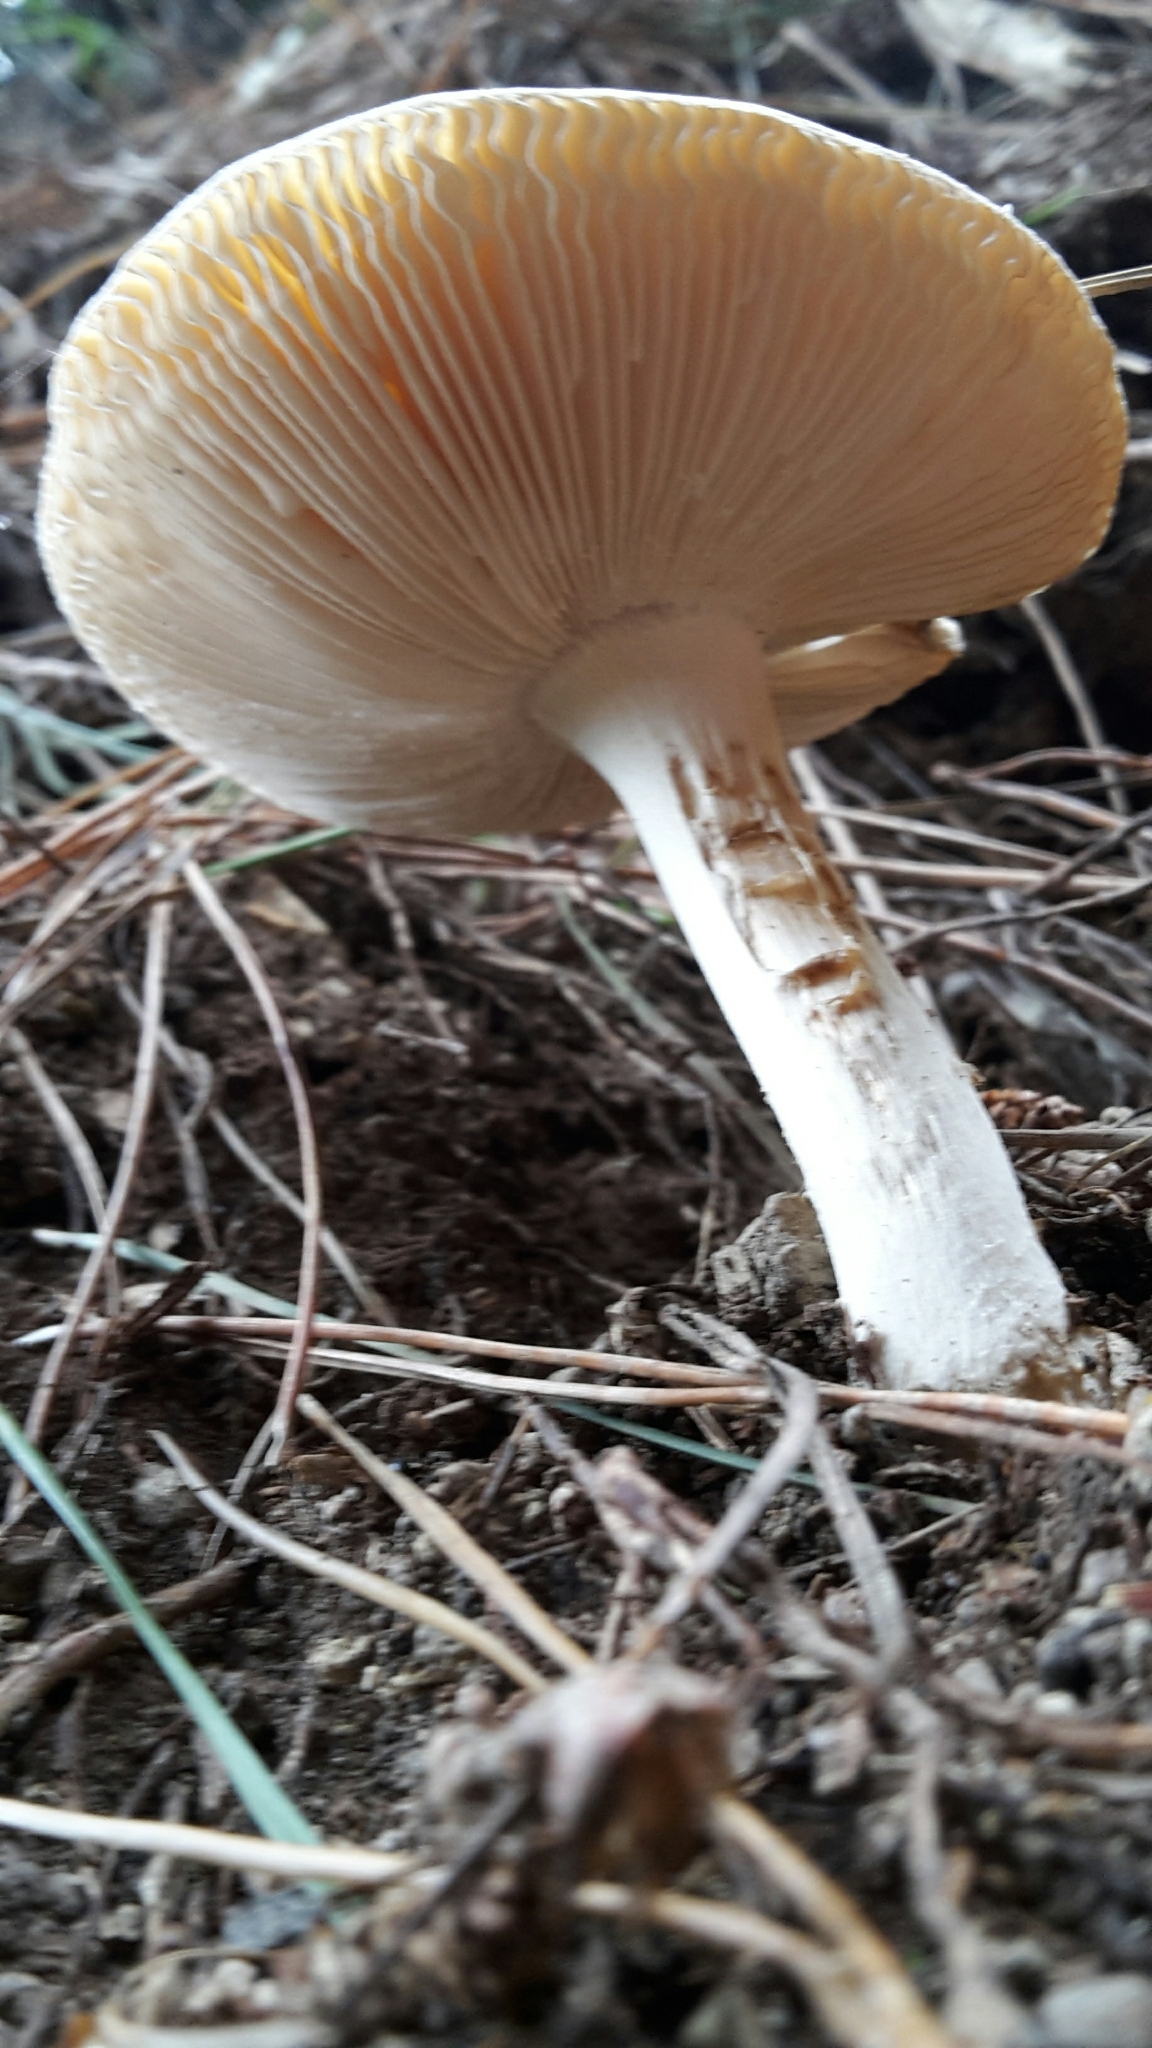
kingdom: Fungi
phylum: Basidiomycota
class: Agaricomycetes
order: Agaricales
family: Amanitaceae
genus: Amanita
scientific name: Amanita gemmata
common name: Jewelled amanita
